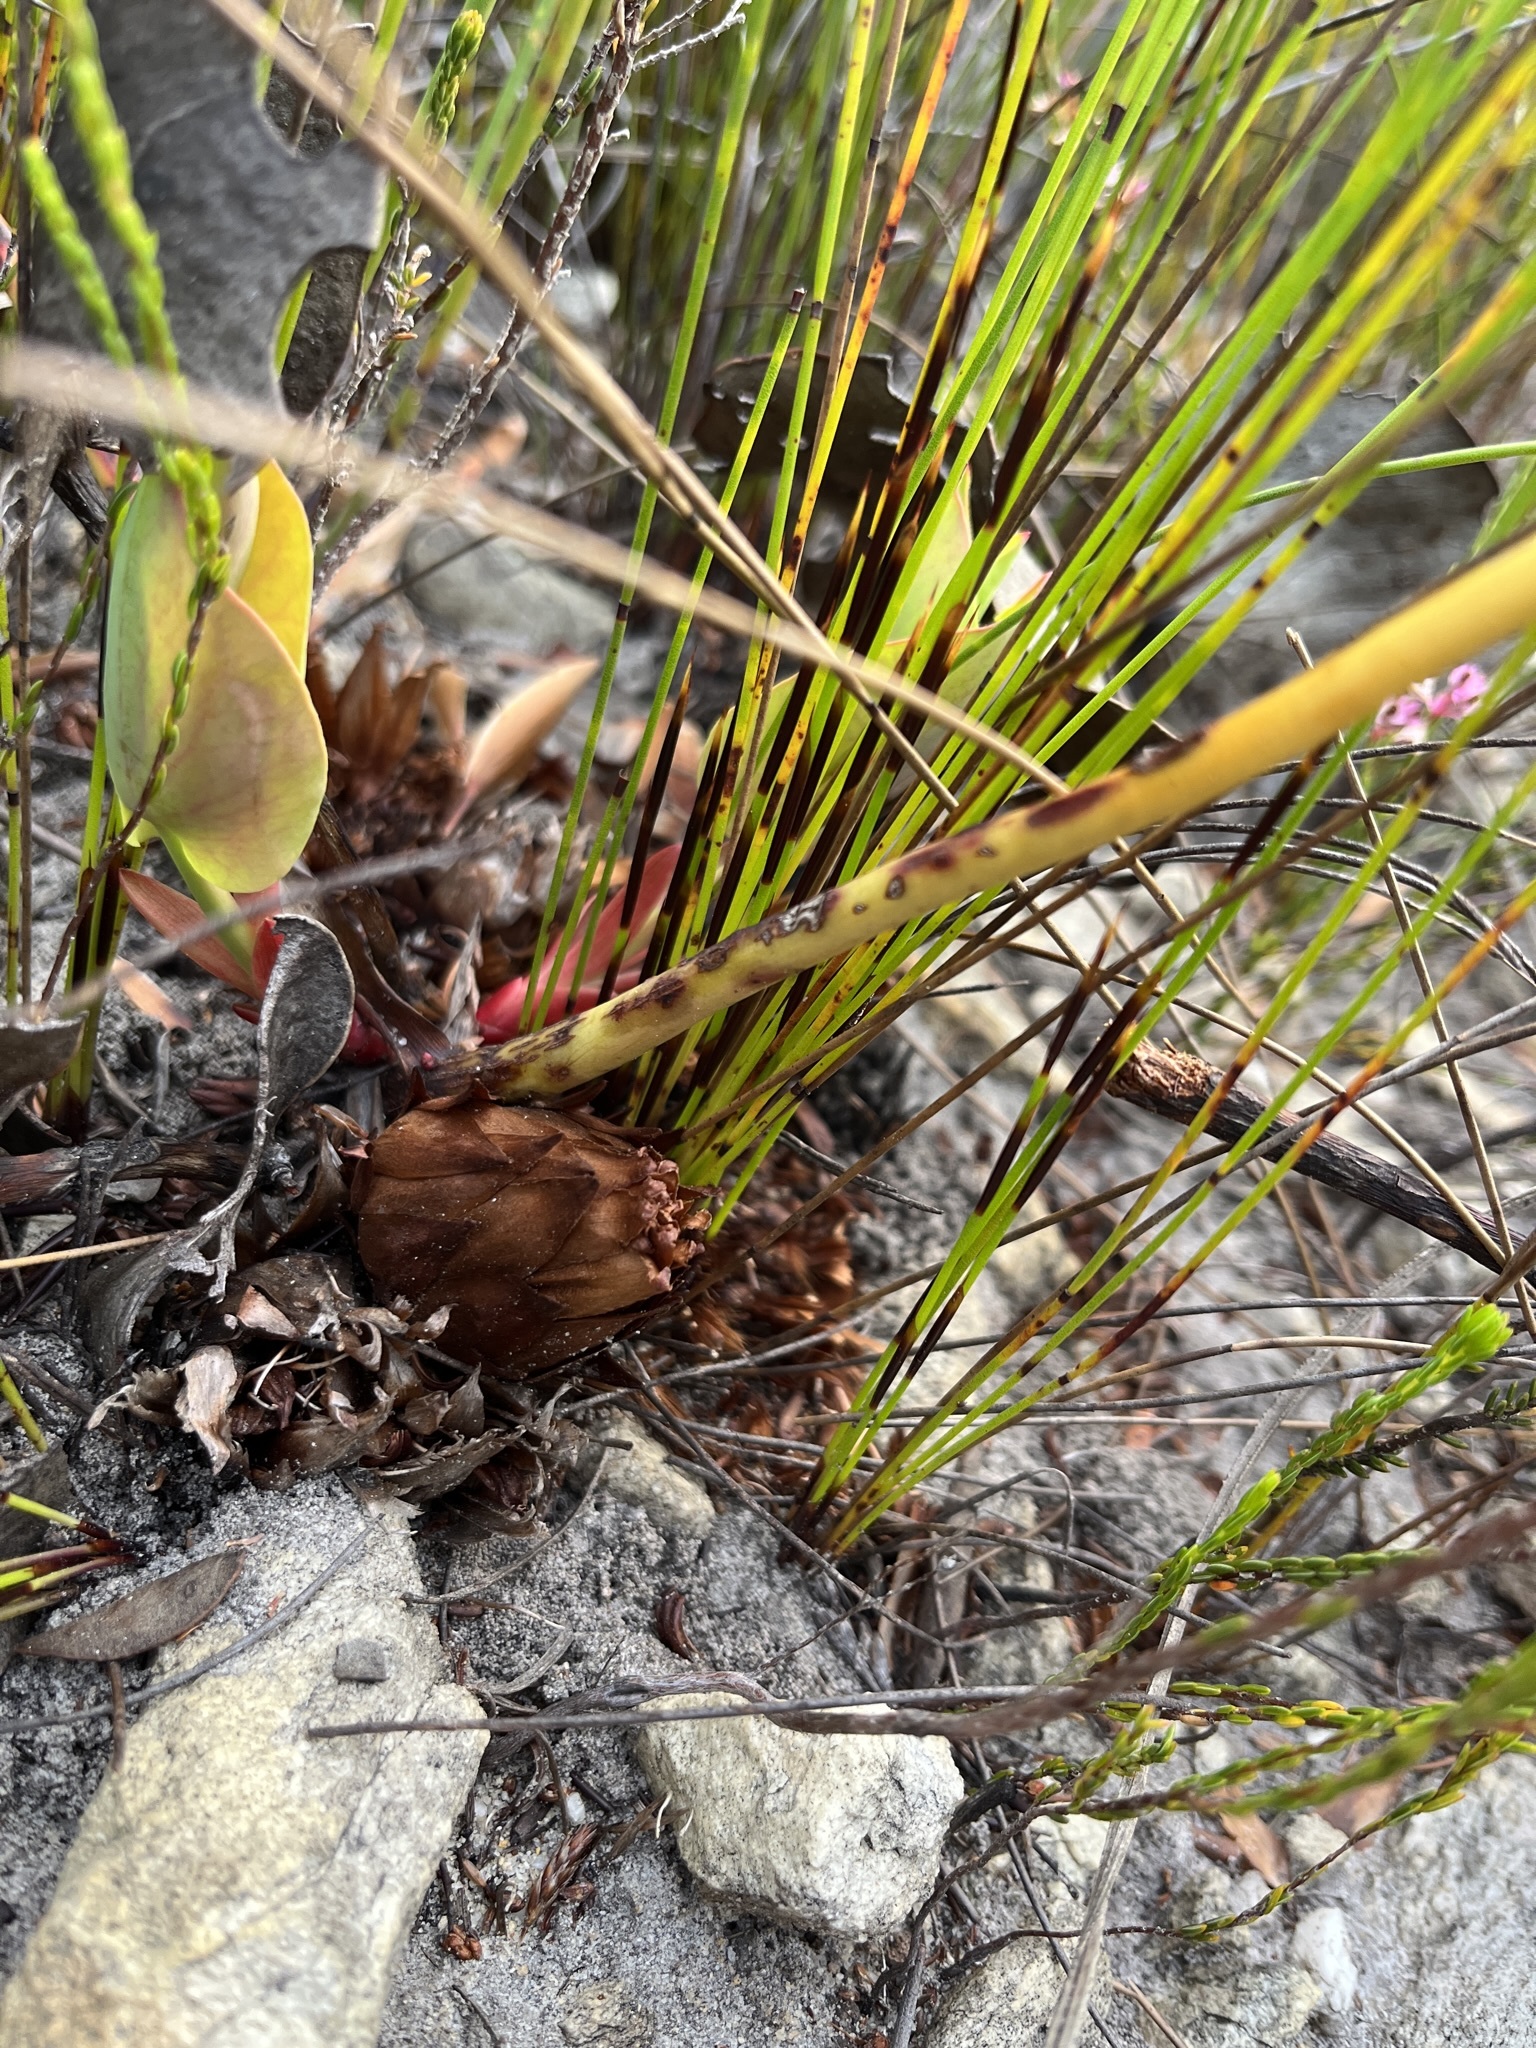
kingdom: Plantae
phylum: Tracheophyta
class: Magnoliopsida
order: Proteales
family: Proteaceae
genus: Protea
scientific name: Protea cordata
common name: Heart-leaf sugarbush
